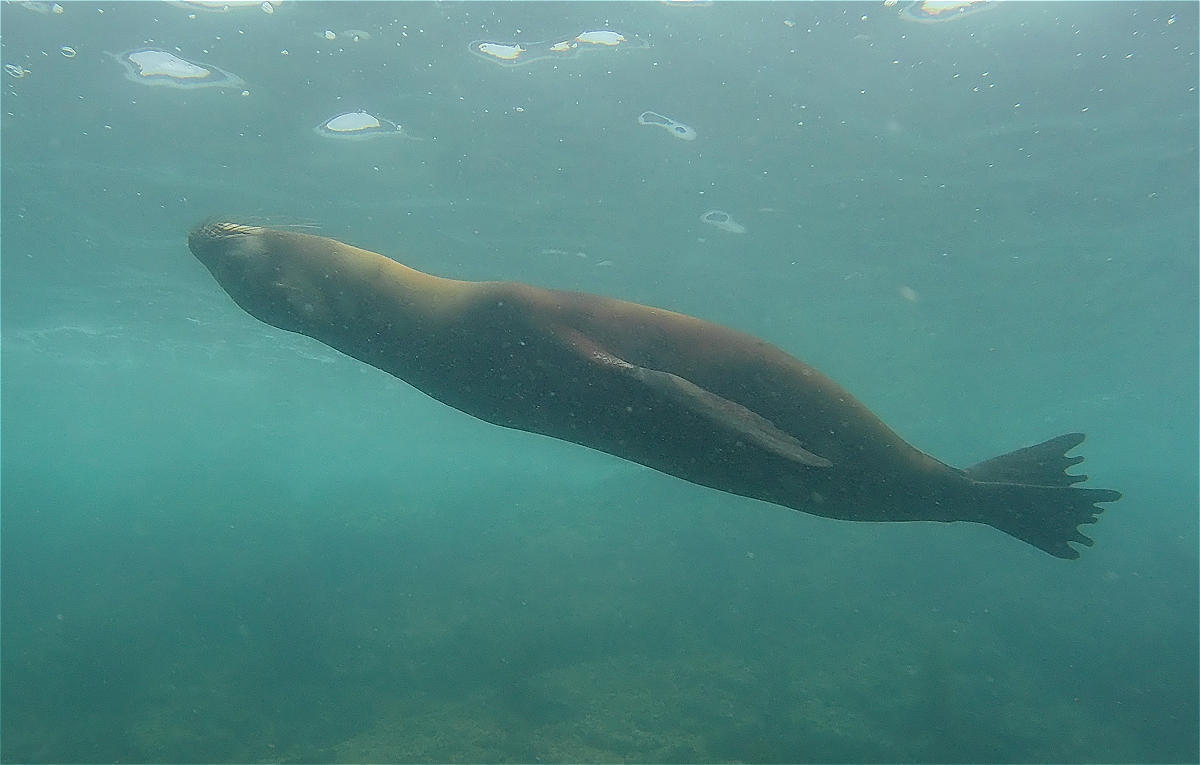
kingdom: Animalia
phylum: Chordata
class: Mammalia
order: Carnivora
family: Otariidae
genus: Zalophus
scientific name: Zalophus wollebaeki
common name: Galapagos sea lion
